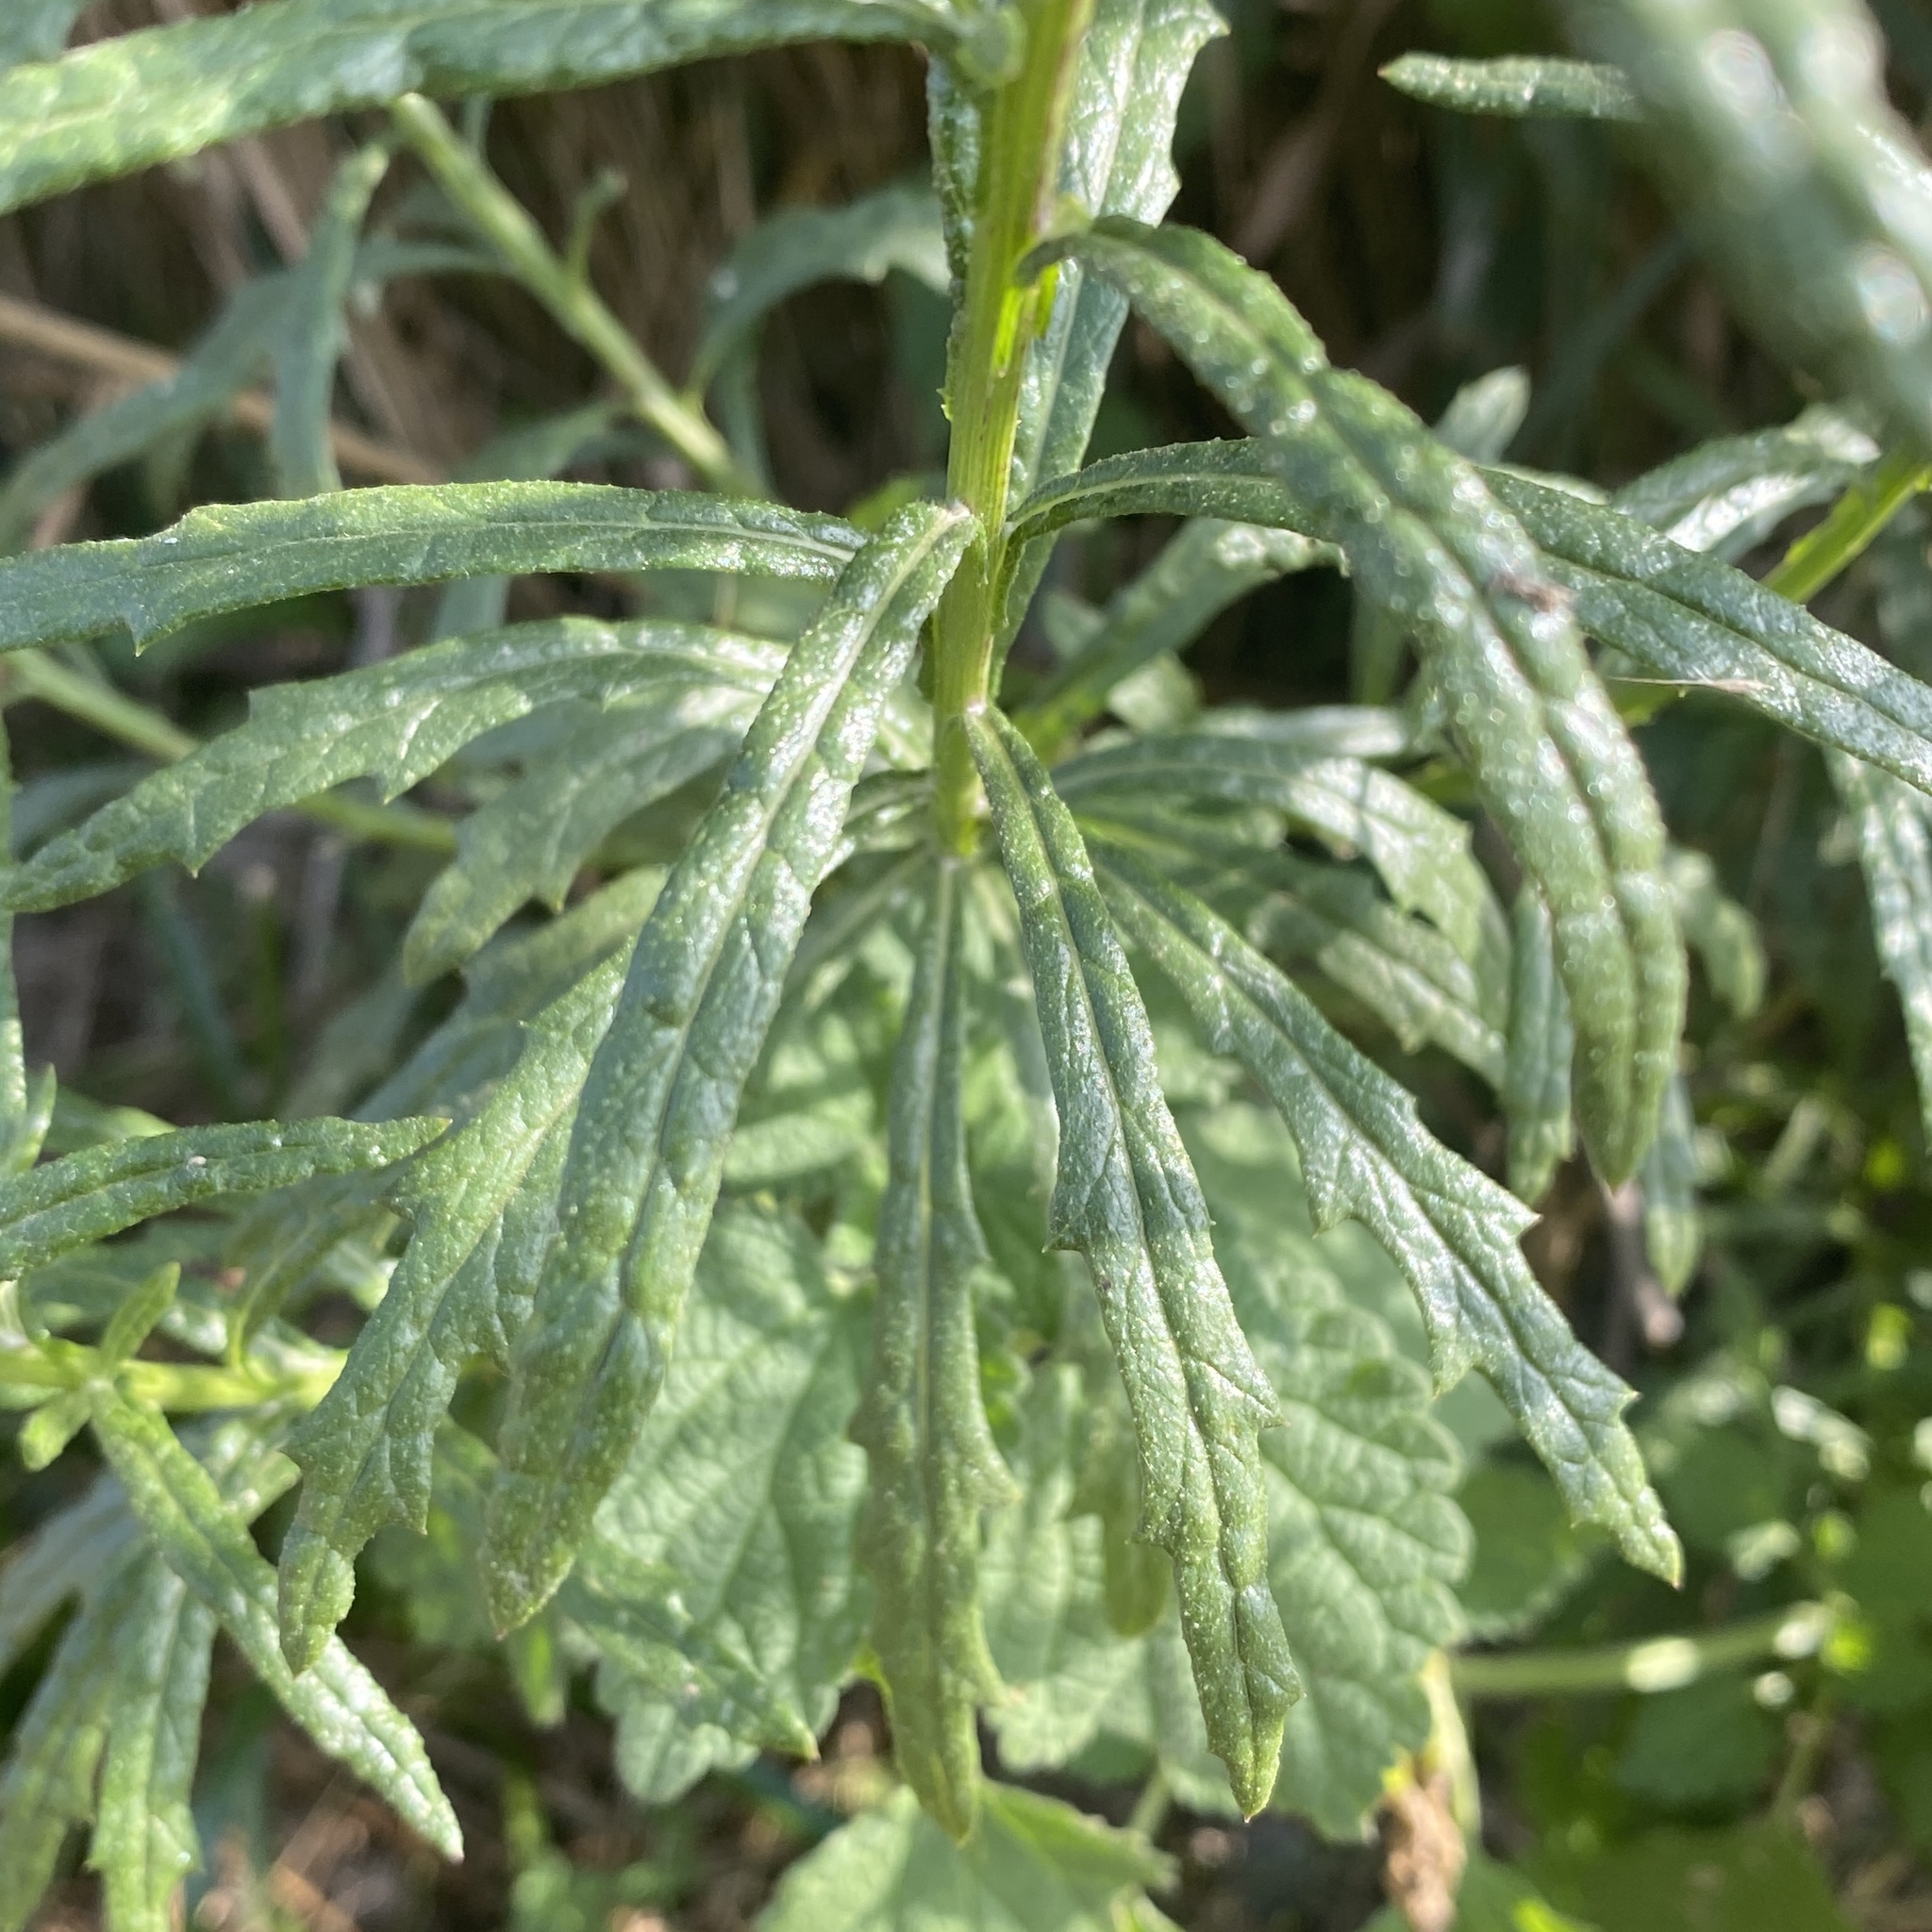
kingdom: Plantae
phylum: Tracheophyta
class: Magnoliopsida
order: Asterales
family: Asteraceae
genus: Senecio
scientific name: Senecio pterophorus
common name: Shoddy ragwort
